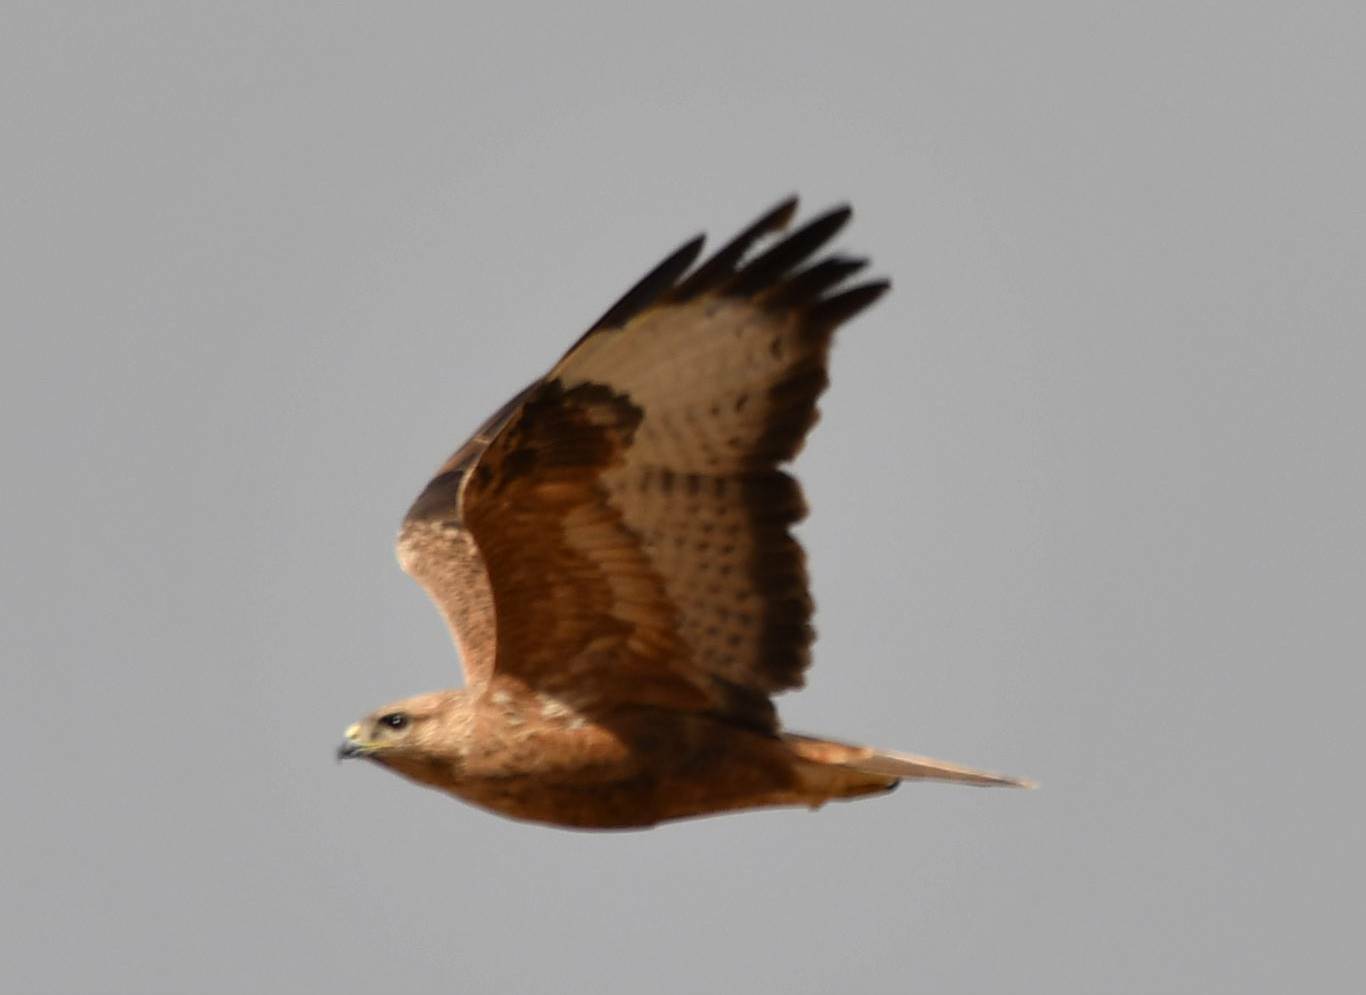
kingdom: Animalia
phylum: Chordata
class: Aves
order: Accipitriformes
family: Accipitridae
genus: Buteo
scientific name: Buteo rufinus
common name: Long-legged buzzard
